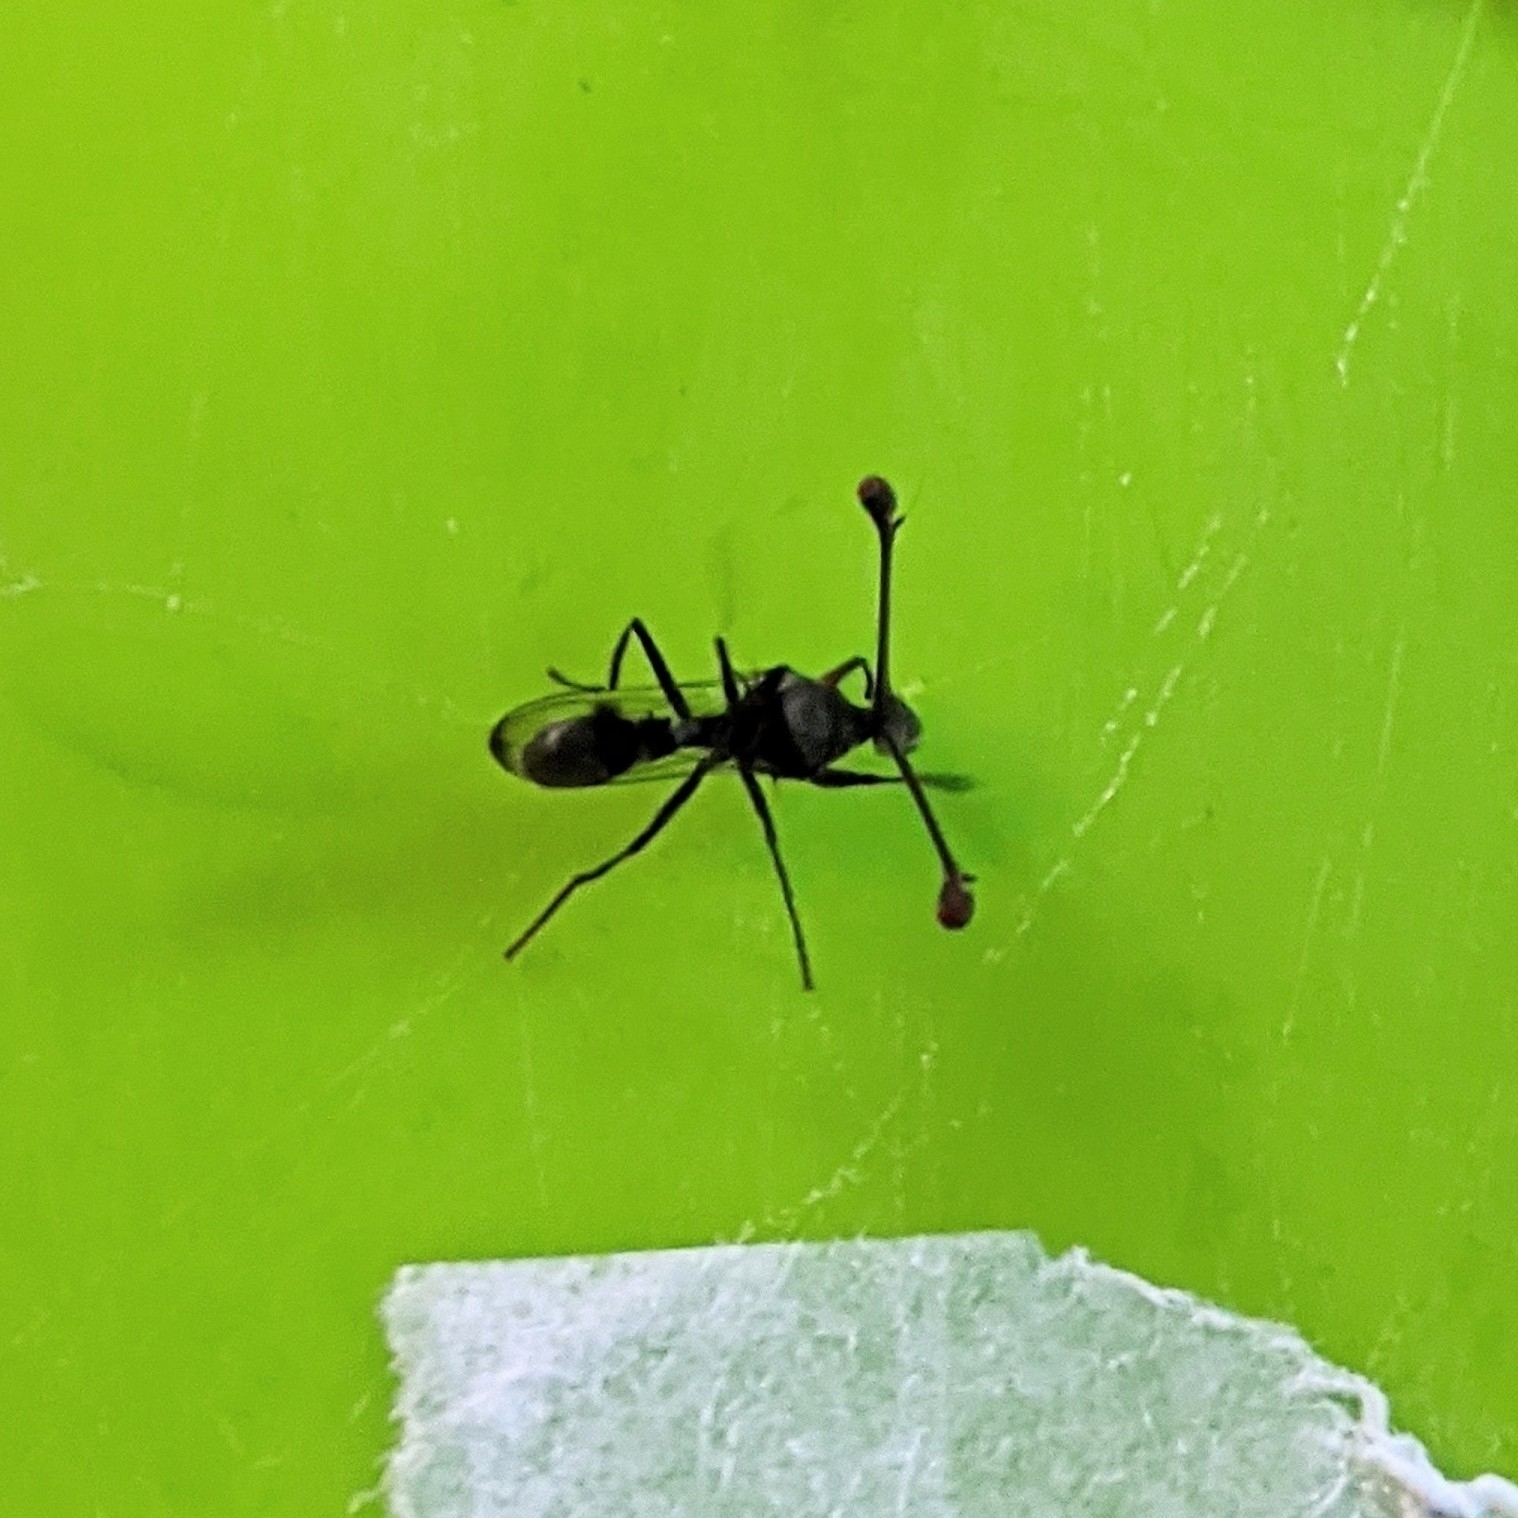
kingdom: Animalia
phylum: Arthropoda
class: Insecta
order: Diptera
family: Diopsidae
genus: Chaetodiopsis
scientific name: Chaetodiopsis
